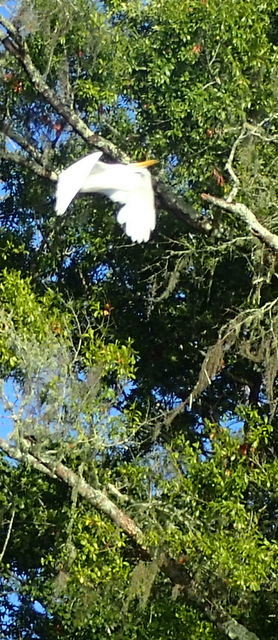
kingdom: Animalia
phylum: Chordata
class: Aves
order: Pelecaniformes
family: Ardeidae
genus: Ardea
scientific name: Ardea alba
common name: Great egret
